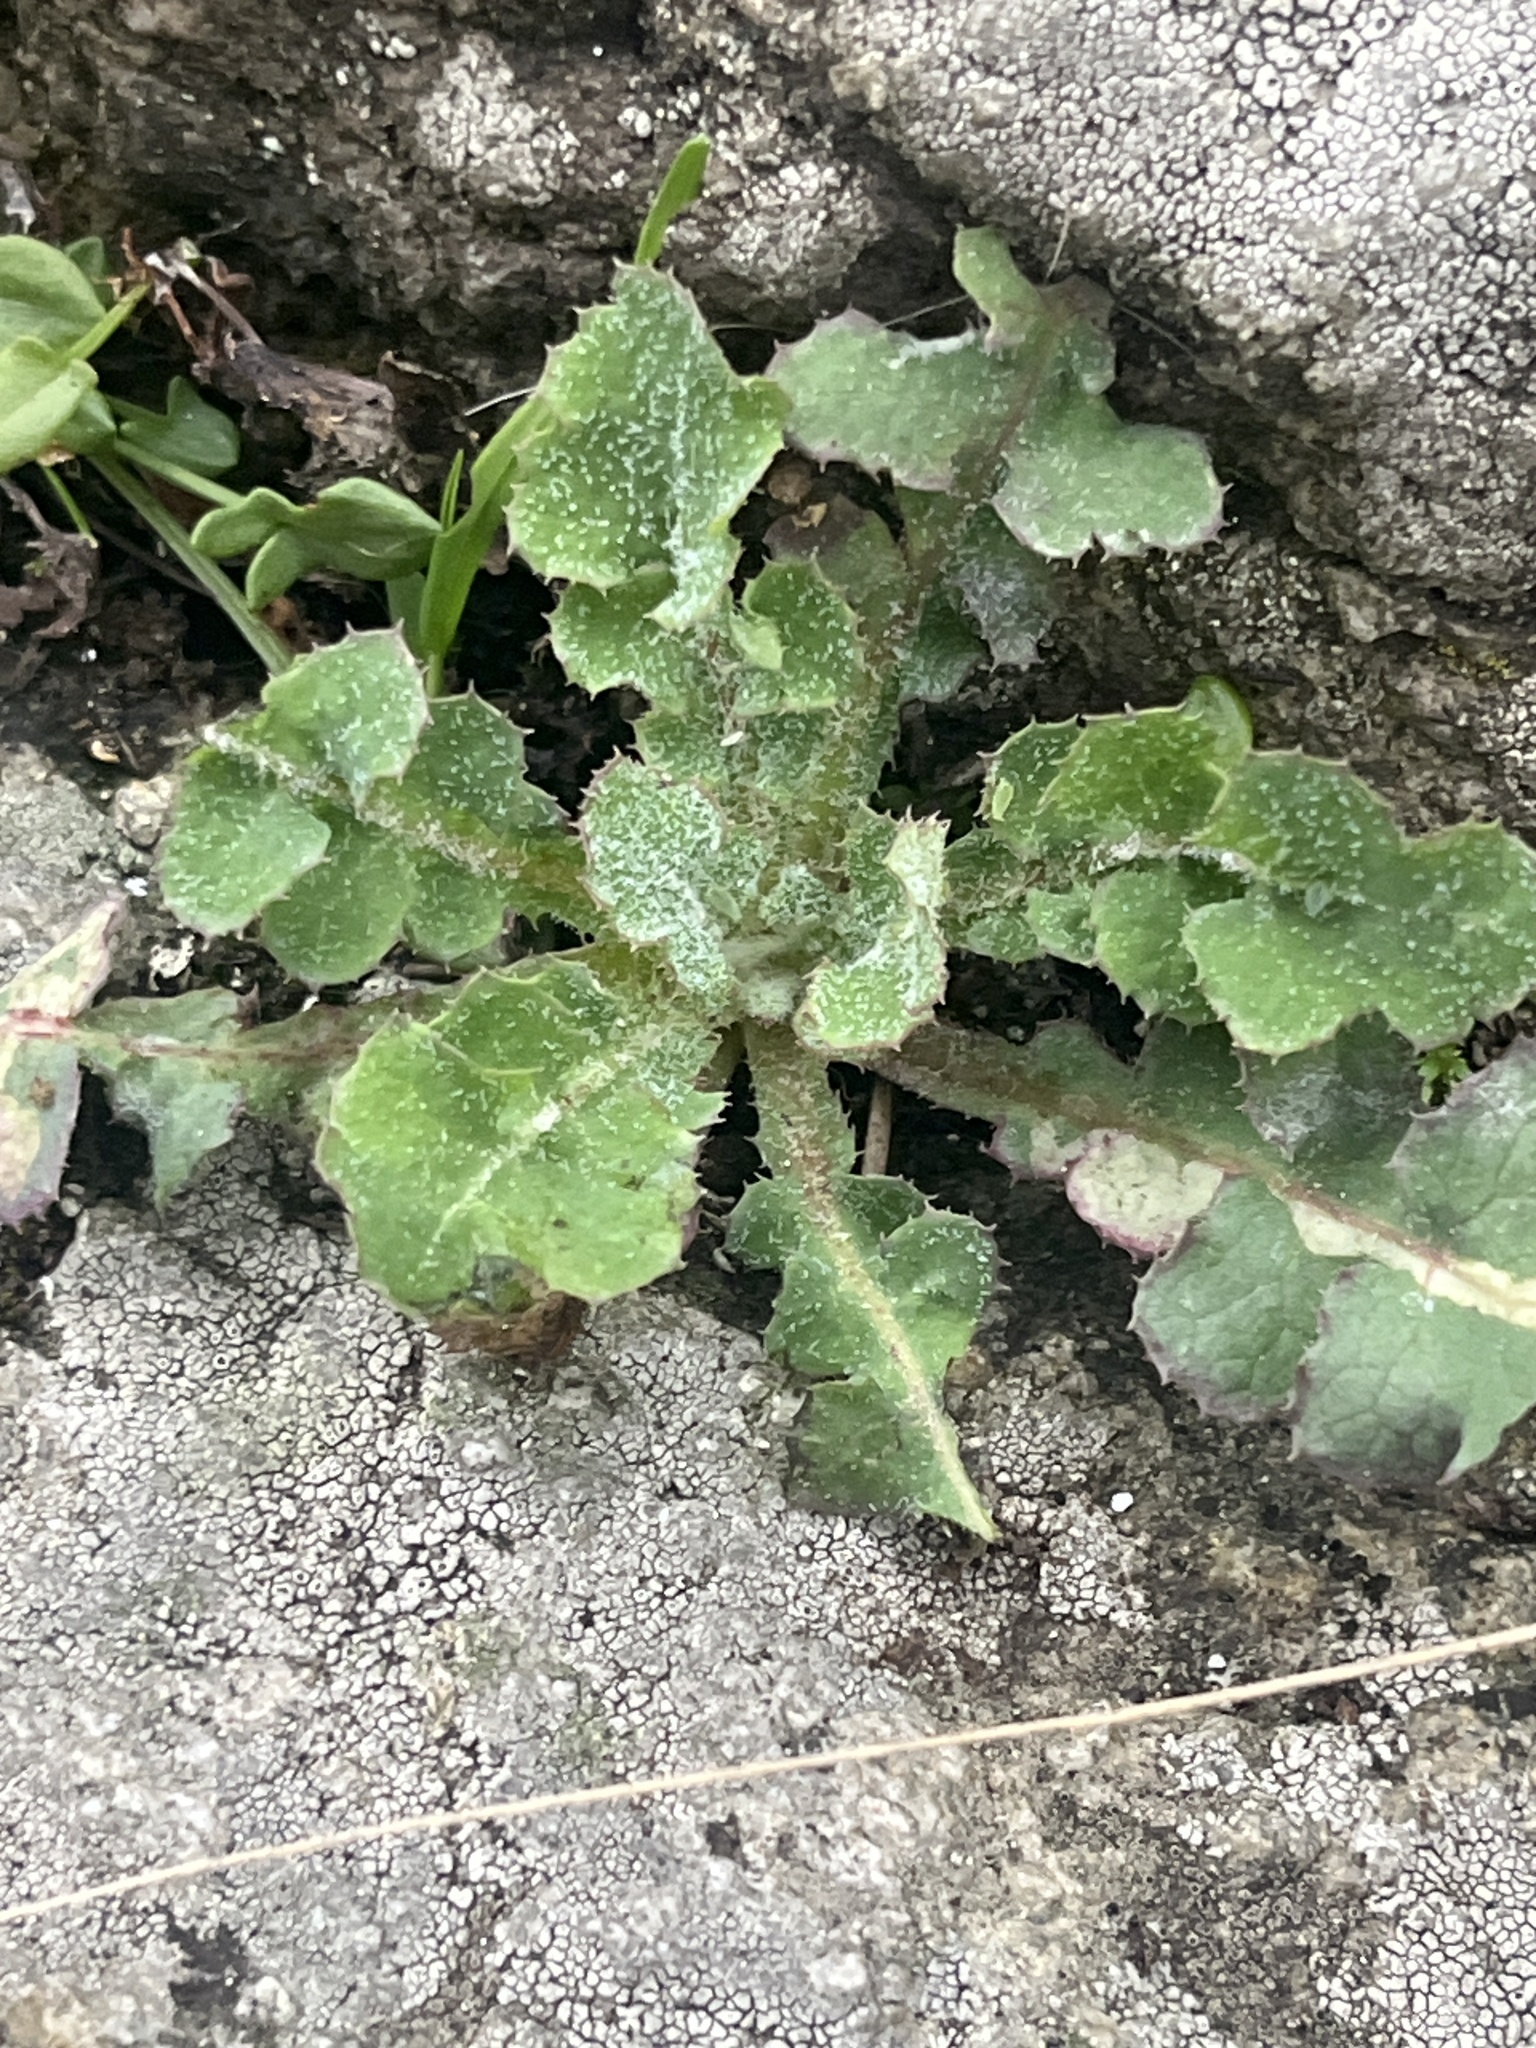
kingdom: Plantae
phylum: Tracheophyta
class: Magnoliopsida
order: Asterales
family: Asteraceae
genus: Sonchus
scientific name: Sonchus oleraceus
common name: Common sowthistle
